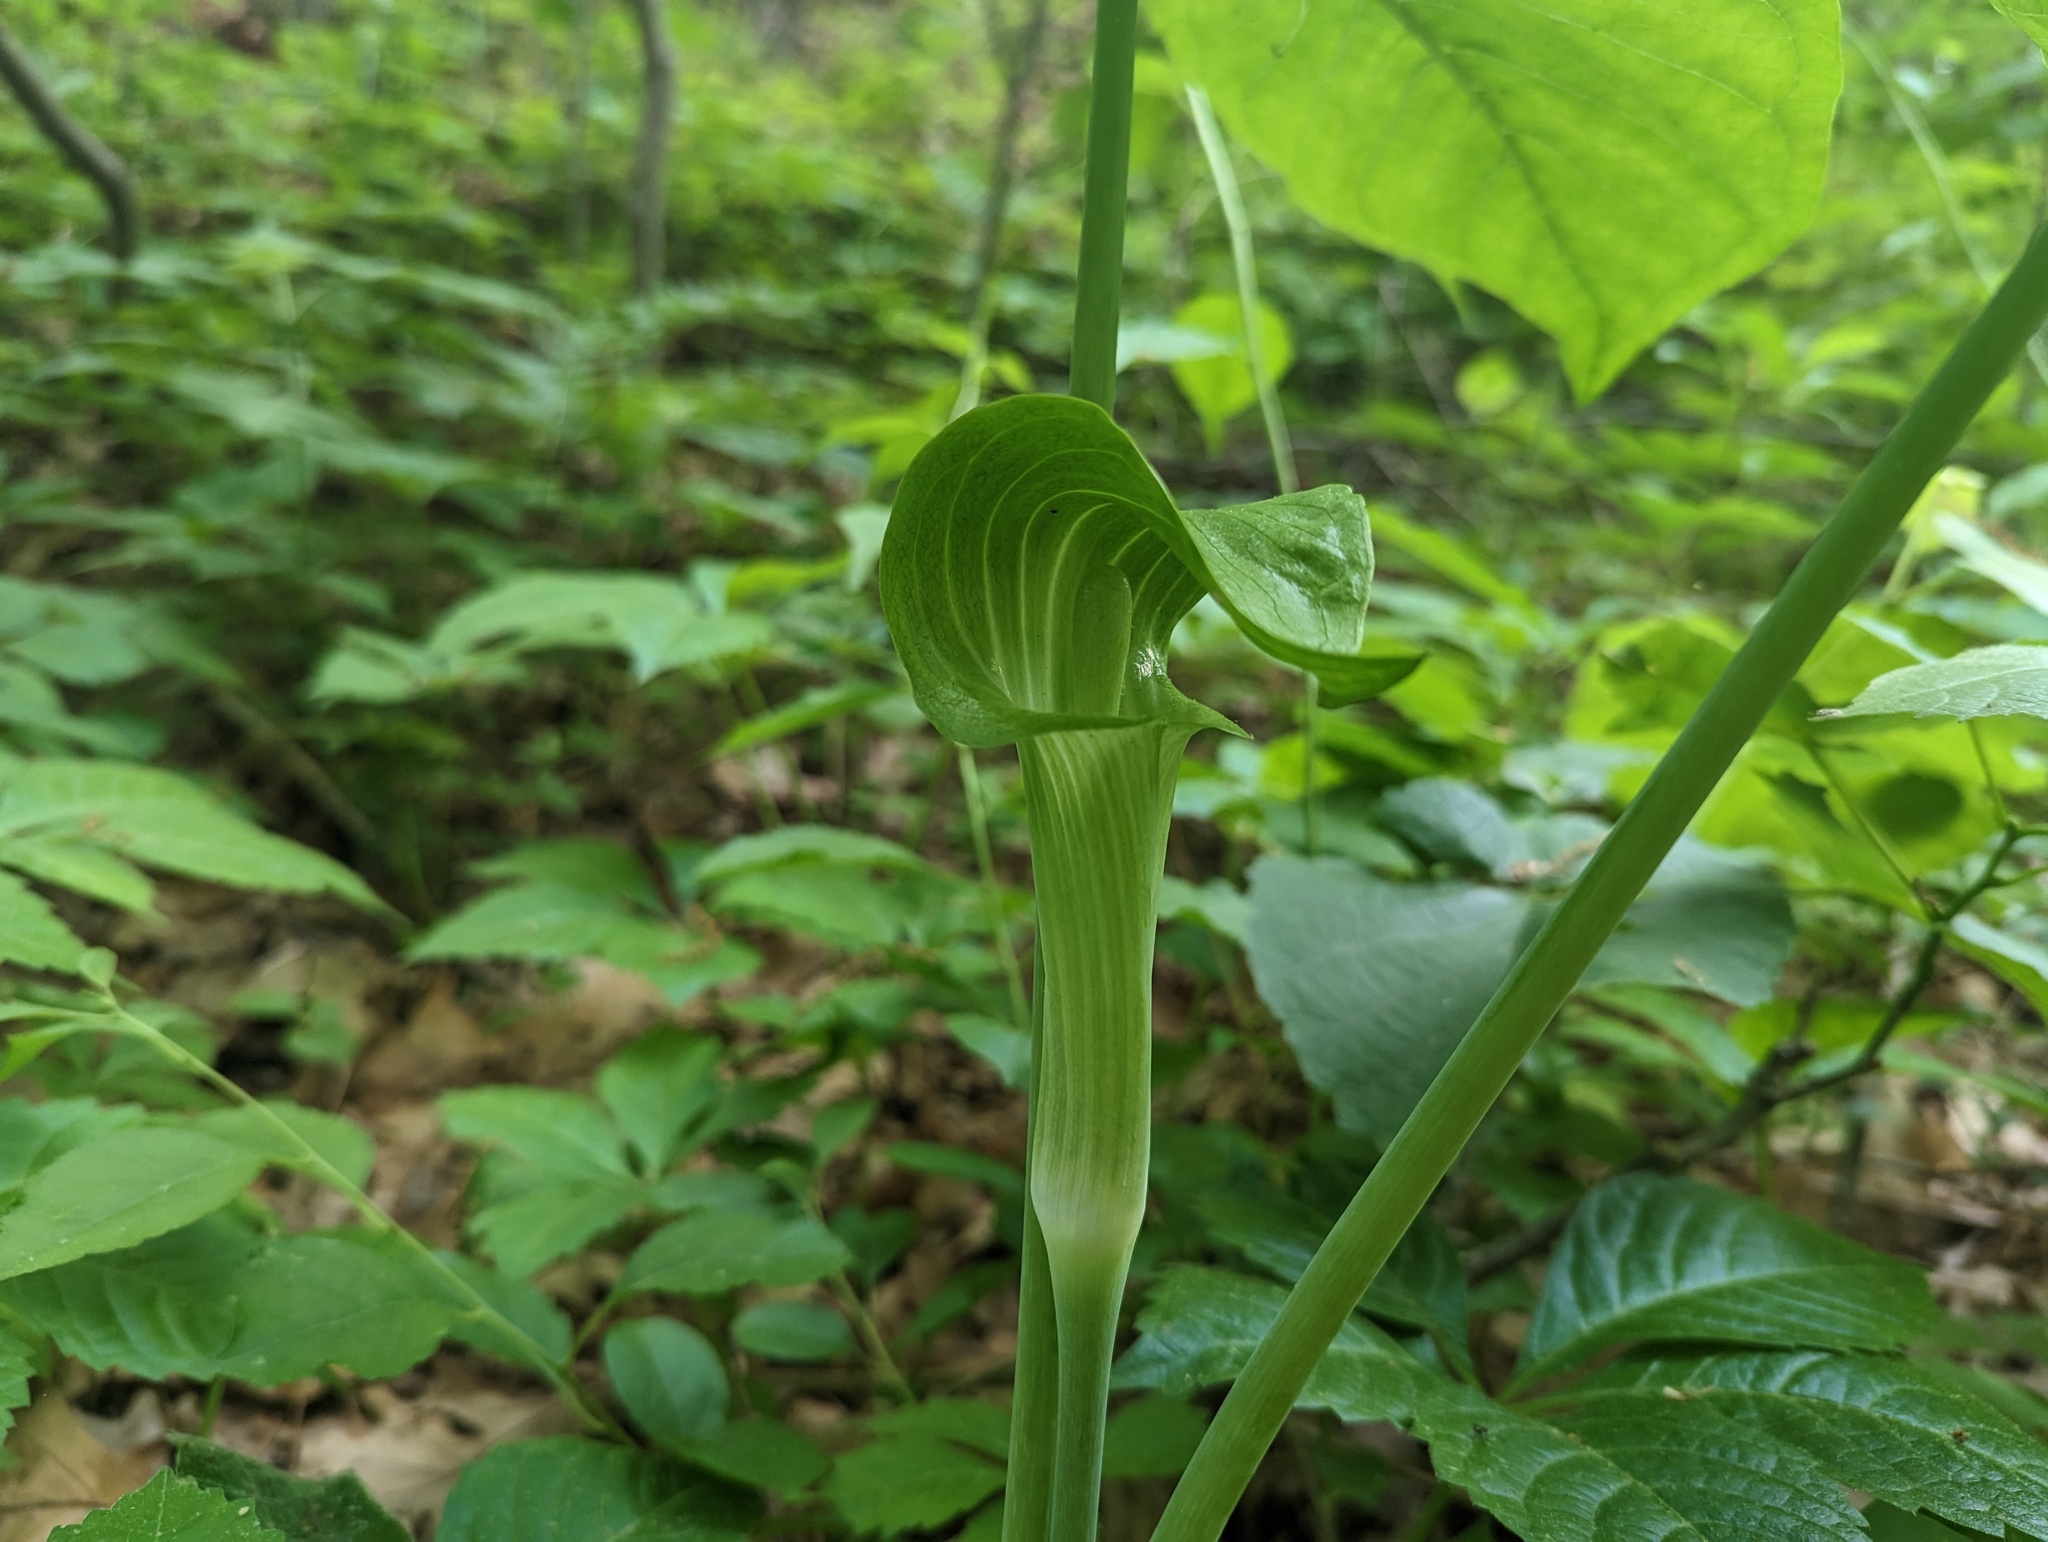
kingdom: Plantae
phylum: Tracheophyta
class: Liliopsida
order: Alismatales
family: Araceae
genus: Arisaema
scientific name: Arisaema triphyllum
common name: Jack-in-the-pulpit
